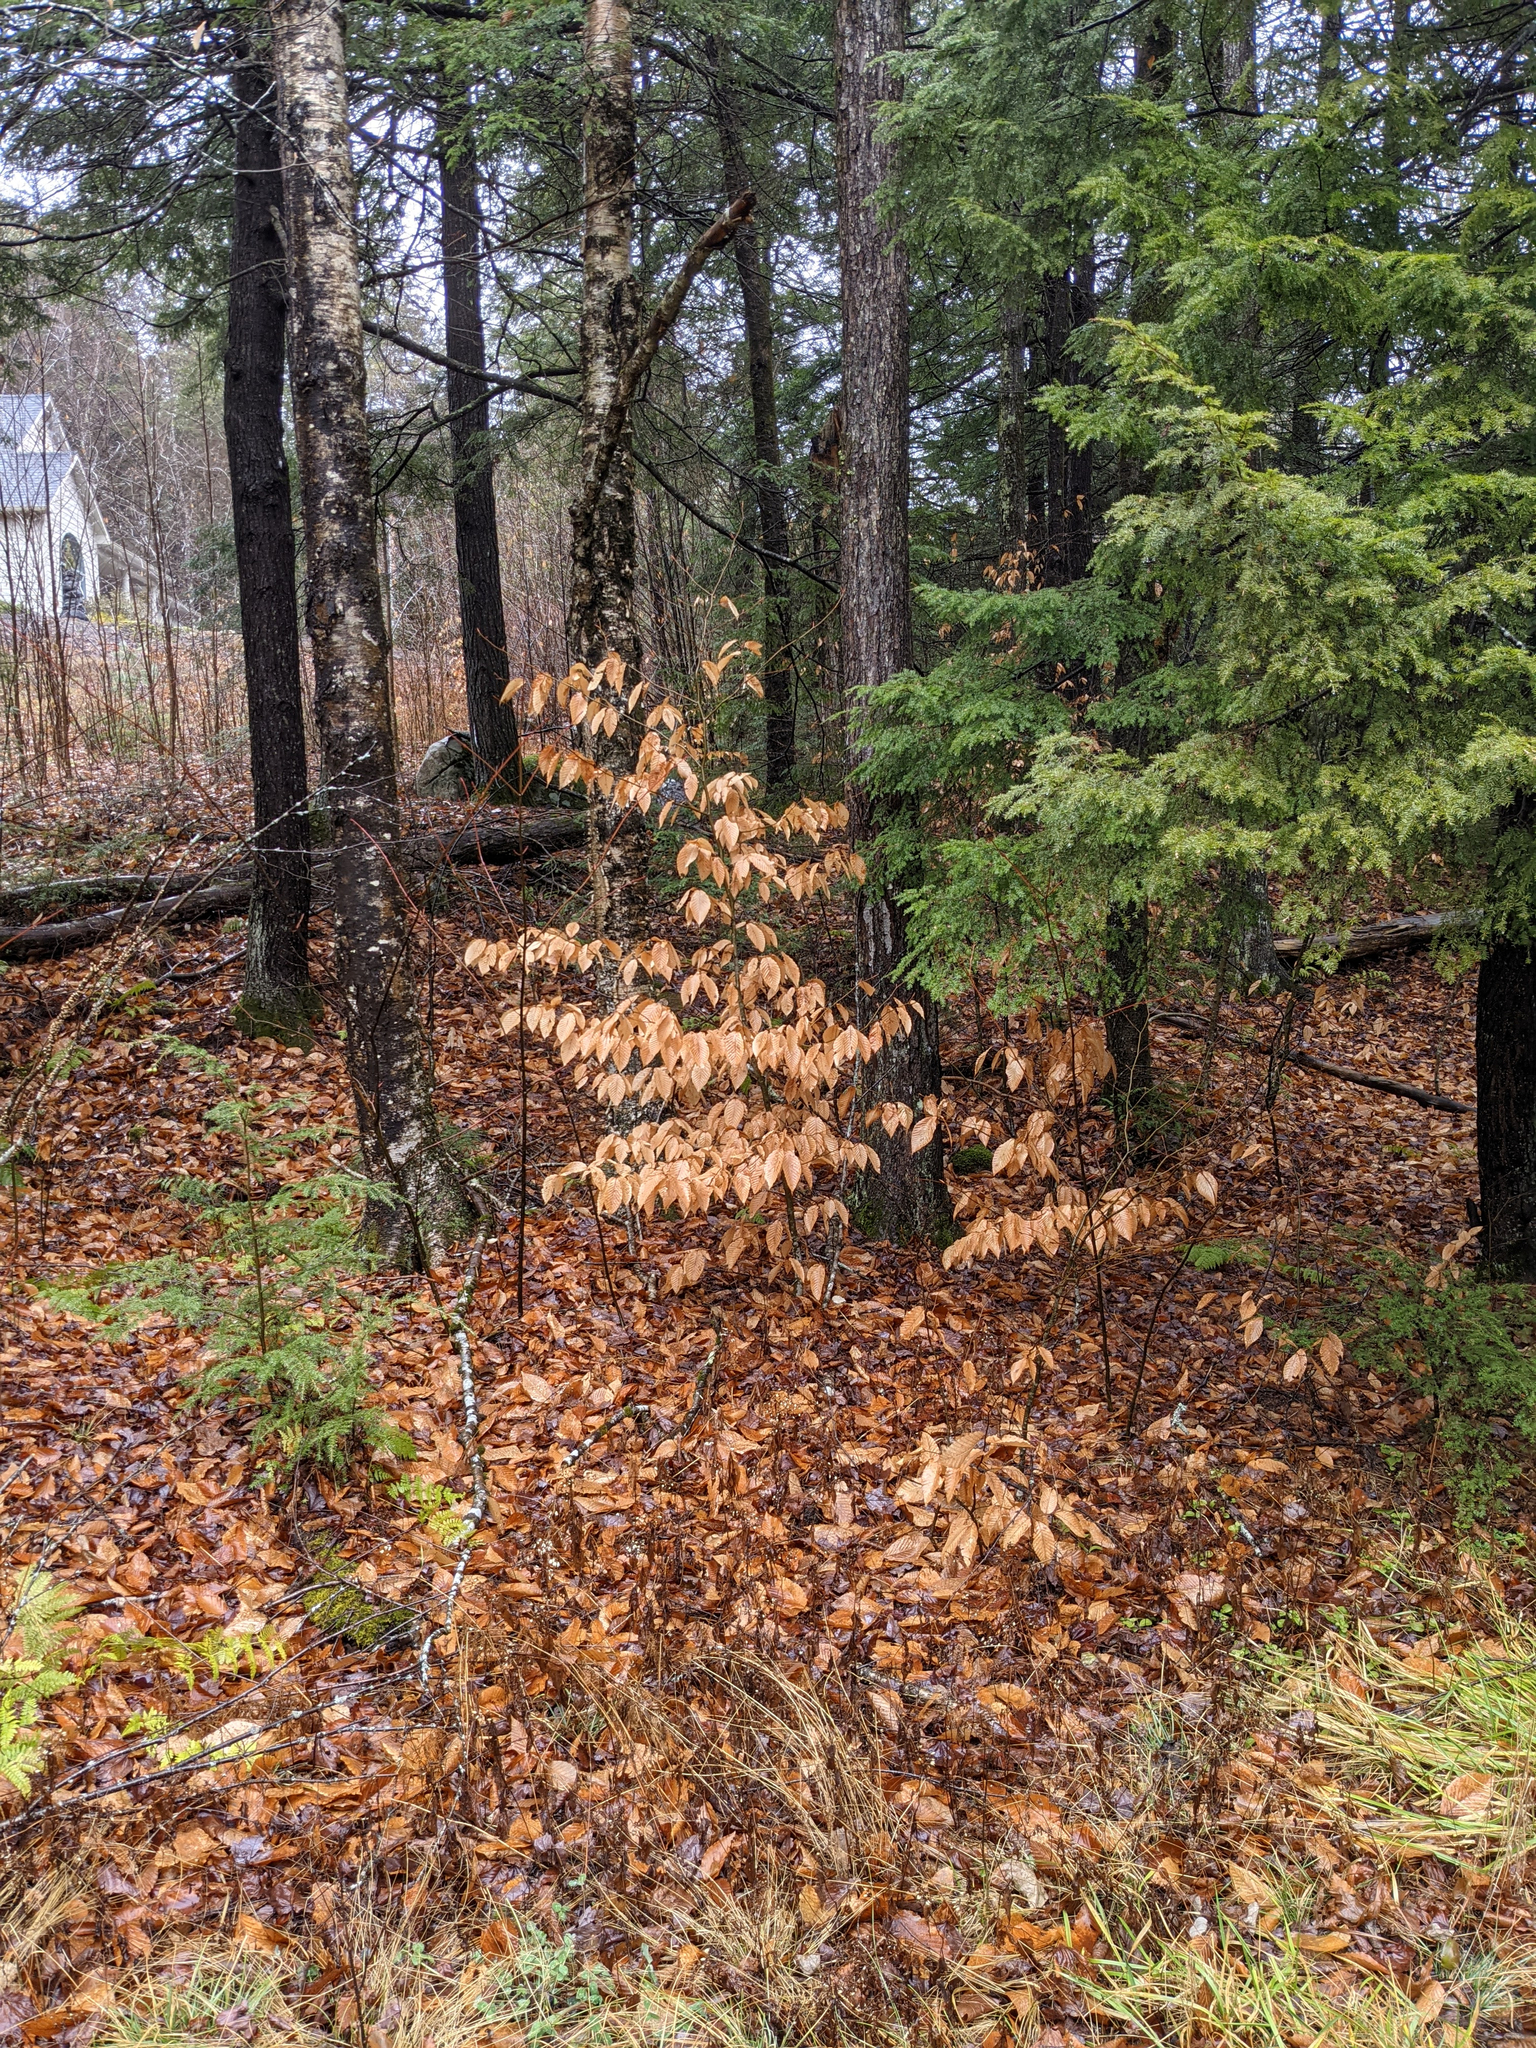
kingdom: Plantae
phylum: Tracheophyta
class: Magnoliopsida
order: Fagales
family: Fagaceae
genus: Fagus
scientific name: Fagus grandifolia
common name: American beech
